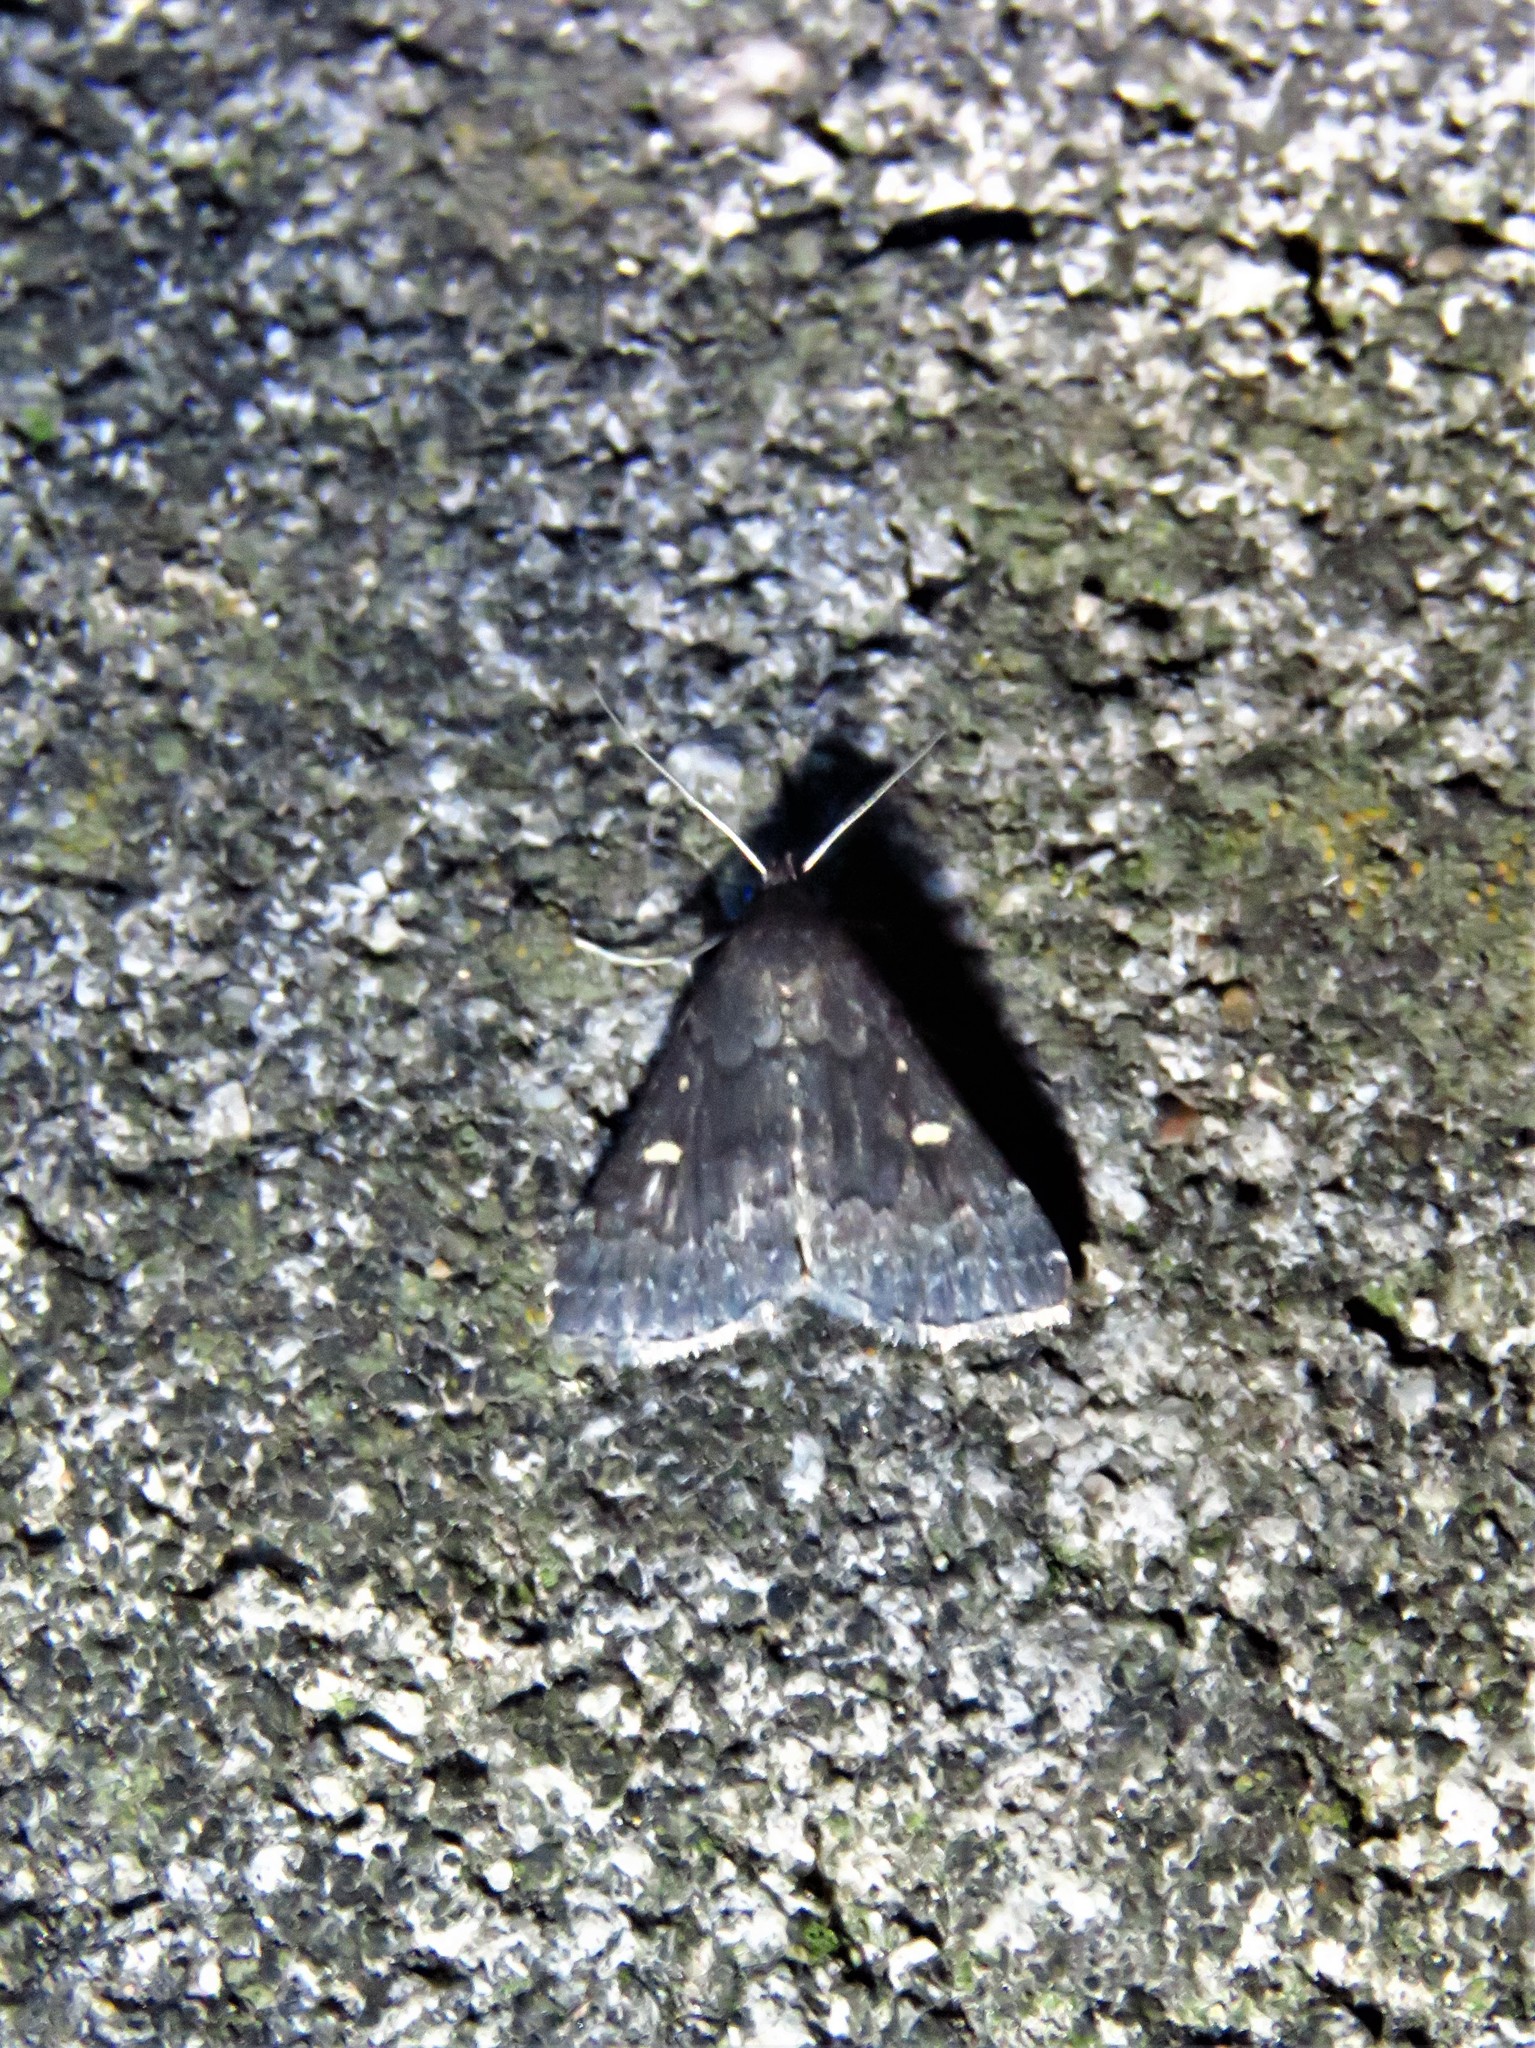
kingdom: Animalia
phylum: Arthropoda
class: Insecta
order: Lepidoptera
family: Erebidae
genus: Tetanolita
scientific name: Tetanolita mynesalis
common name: Smoky tetanolita moth
